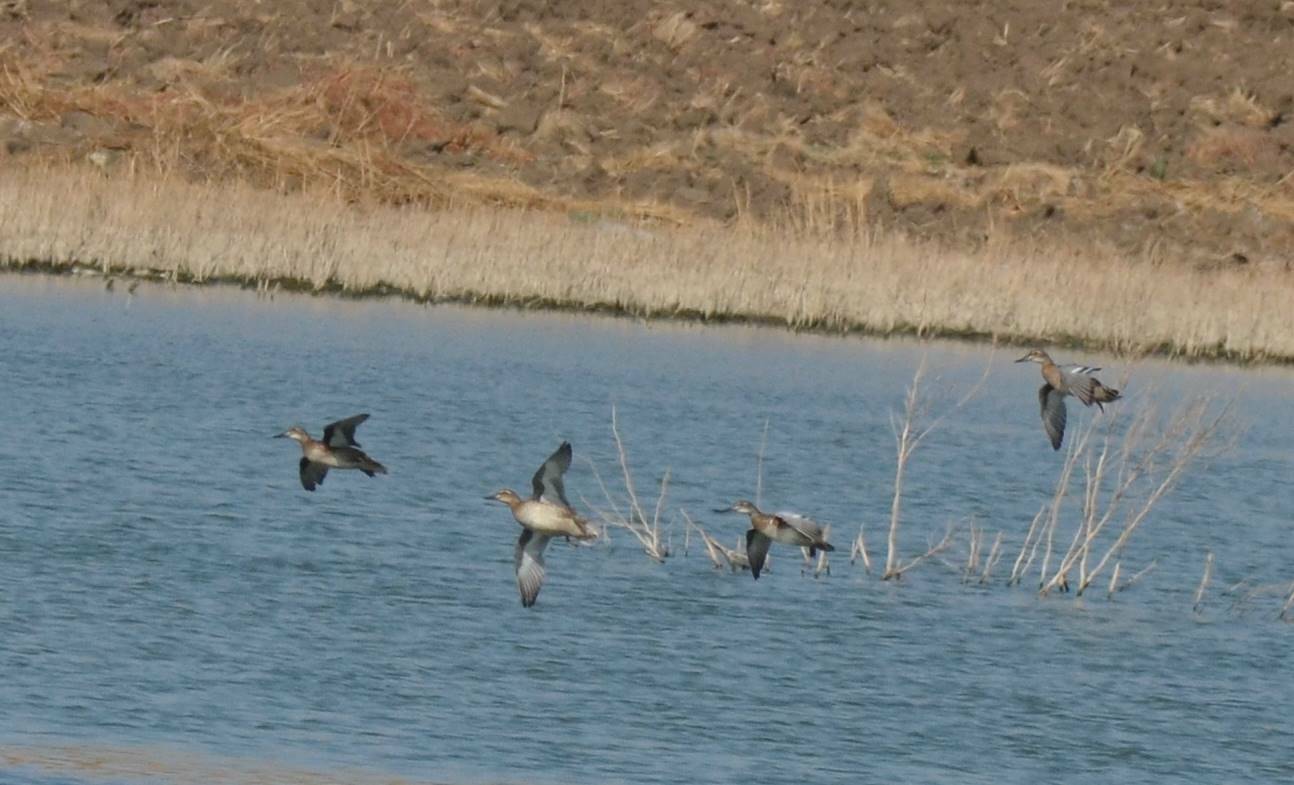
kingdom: Animalia
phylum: Chordata
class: Aves
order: Anseriformes
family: Anatidae
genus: Spatula
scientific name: Spatula querquedula
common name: Garganey
